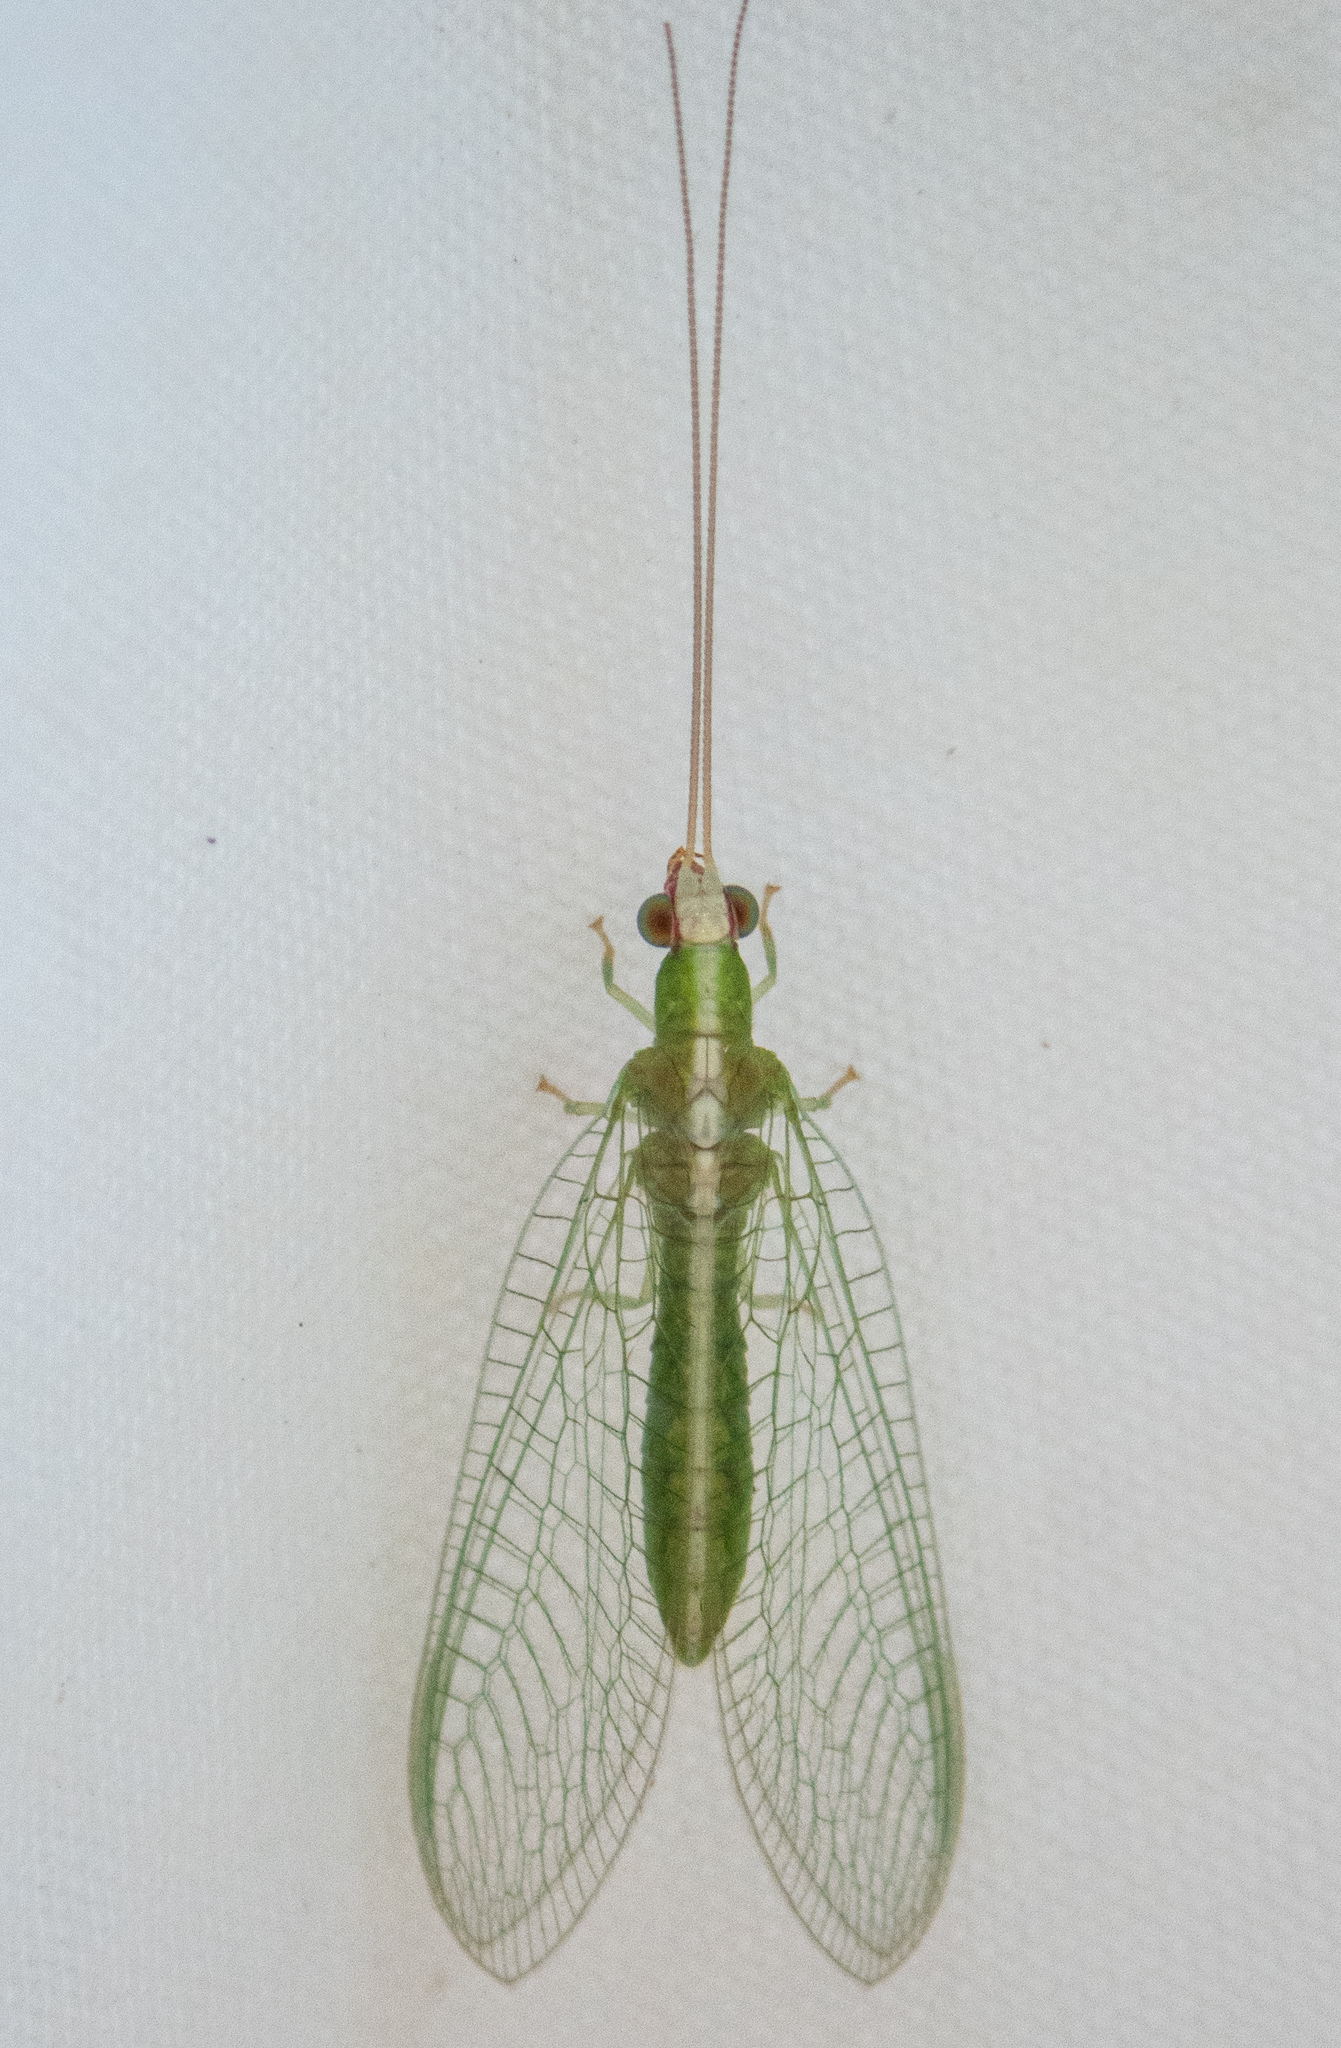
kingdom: Animalia
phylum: Arthropoda
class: Insecta
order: Neuroptera
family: Chrysopidae
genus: Chrysopodes
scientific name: Chrysopodes collaris
